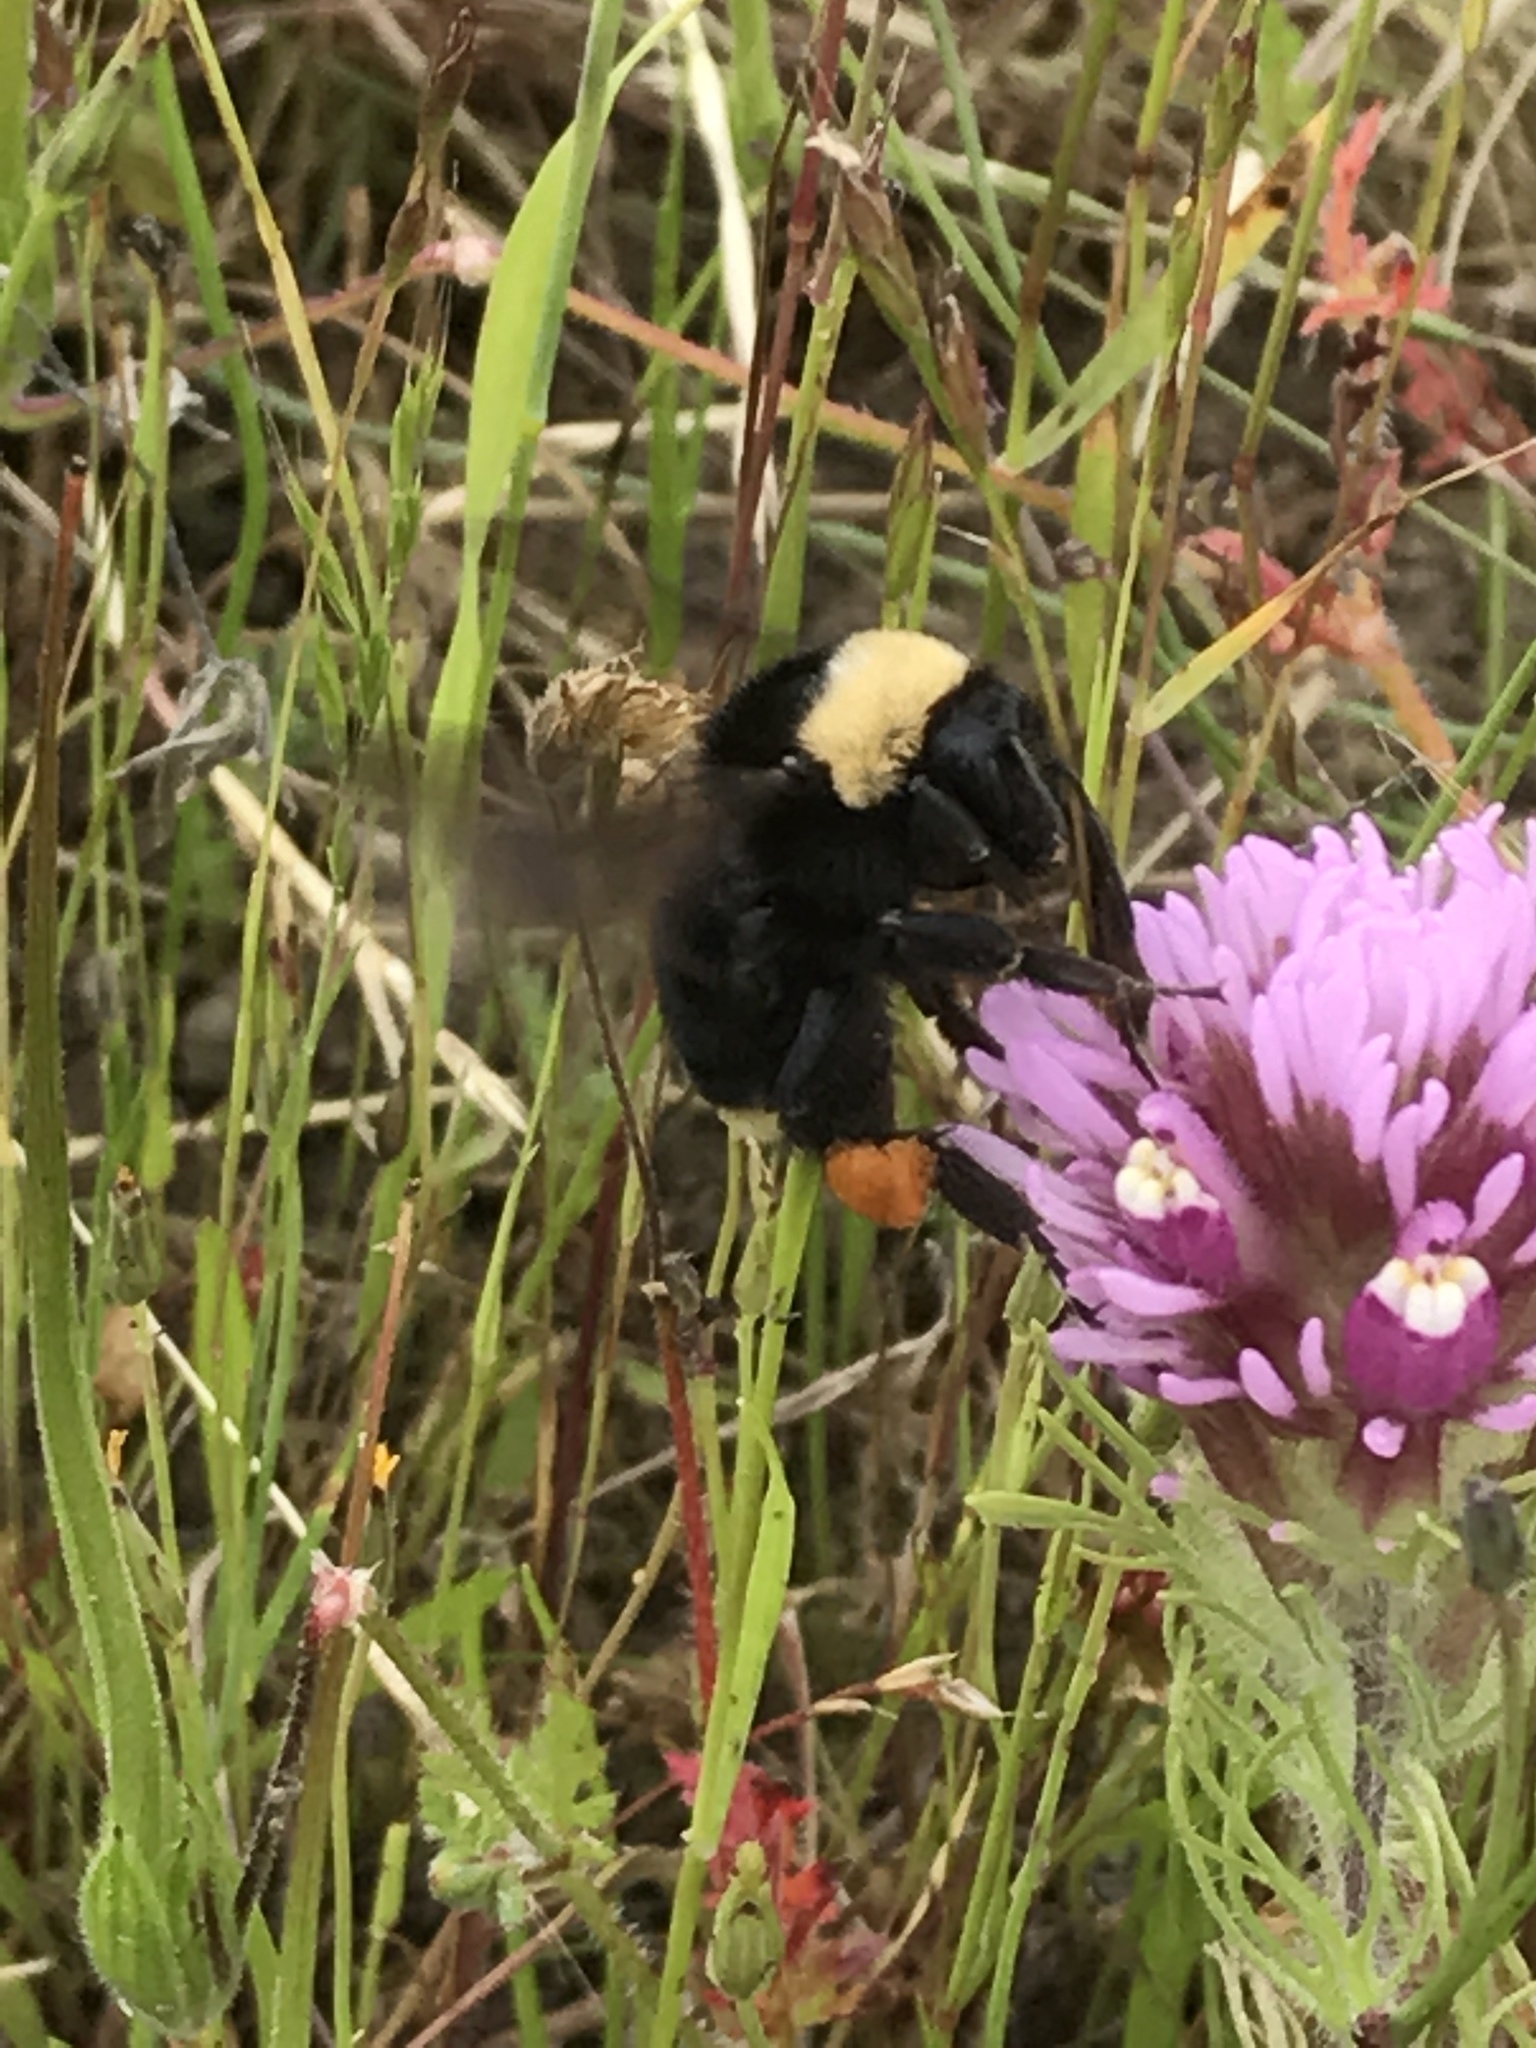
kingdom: Animalia
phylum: Arthropoda
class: Insecta
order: Hymenoptera
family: Apidae
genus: Bombus
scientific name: Bombus californicus
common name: California bumble bee
